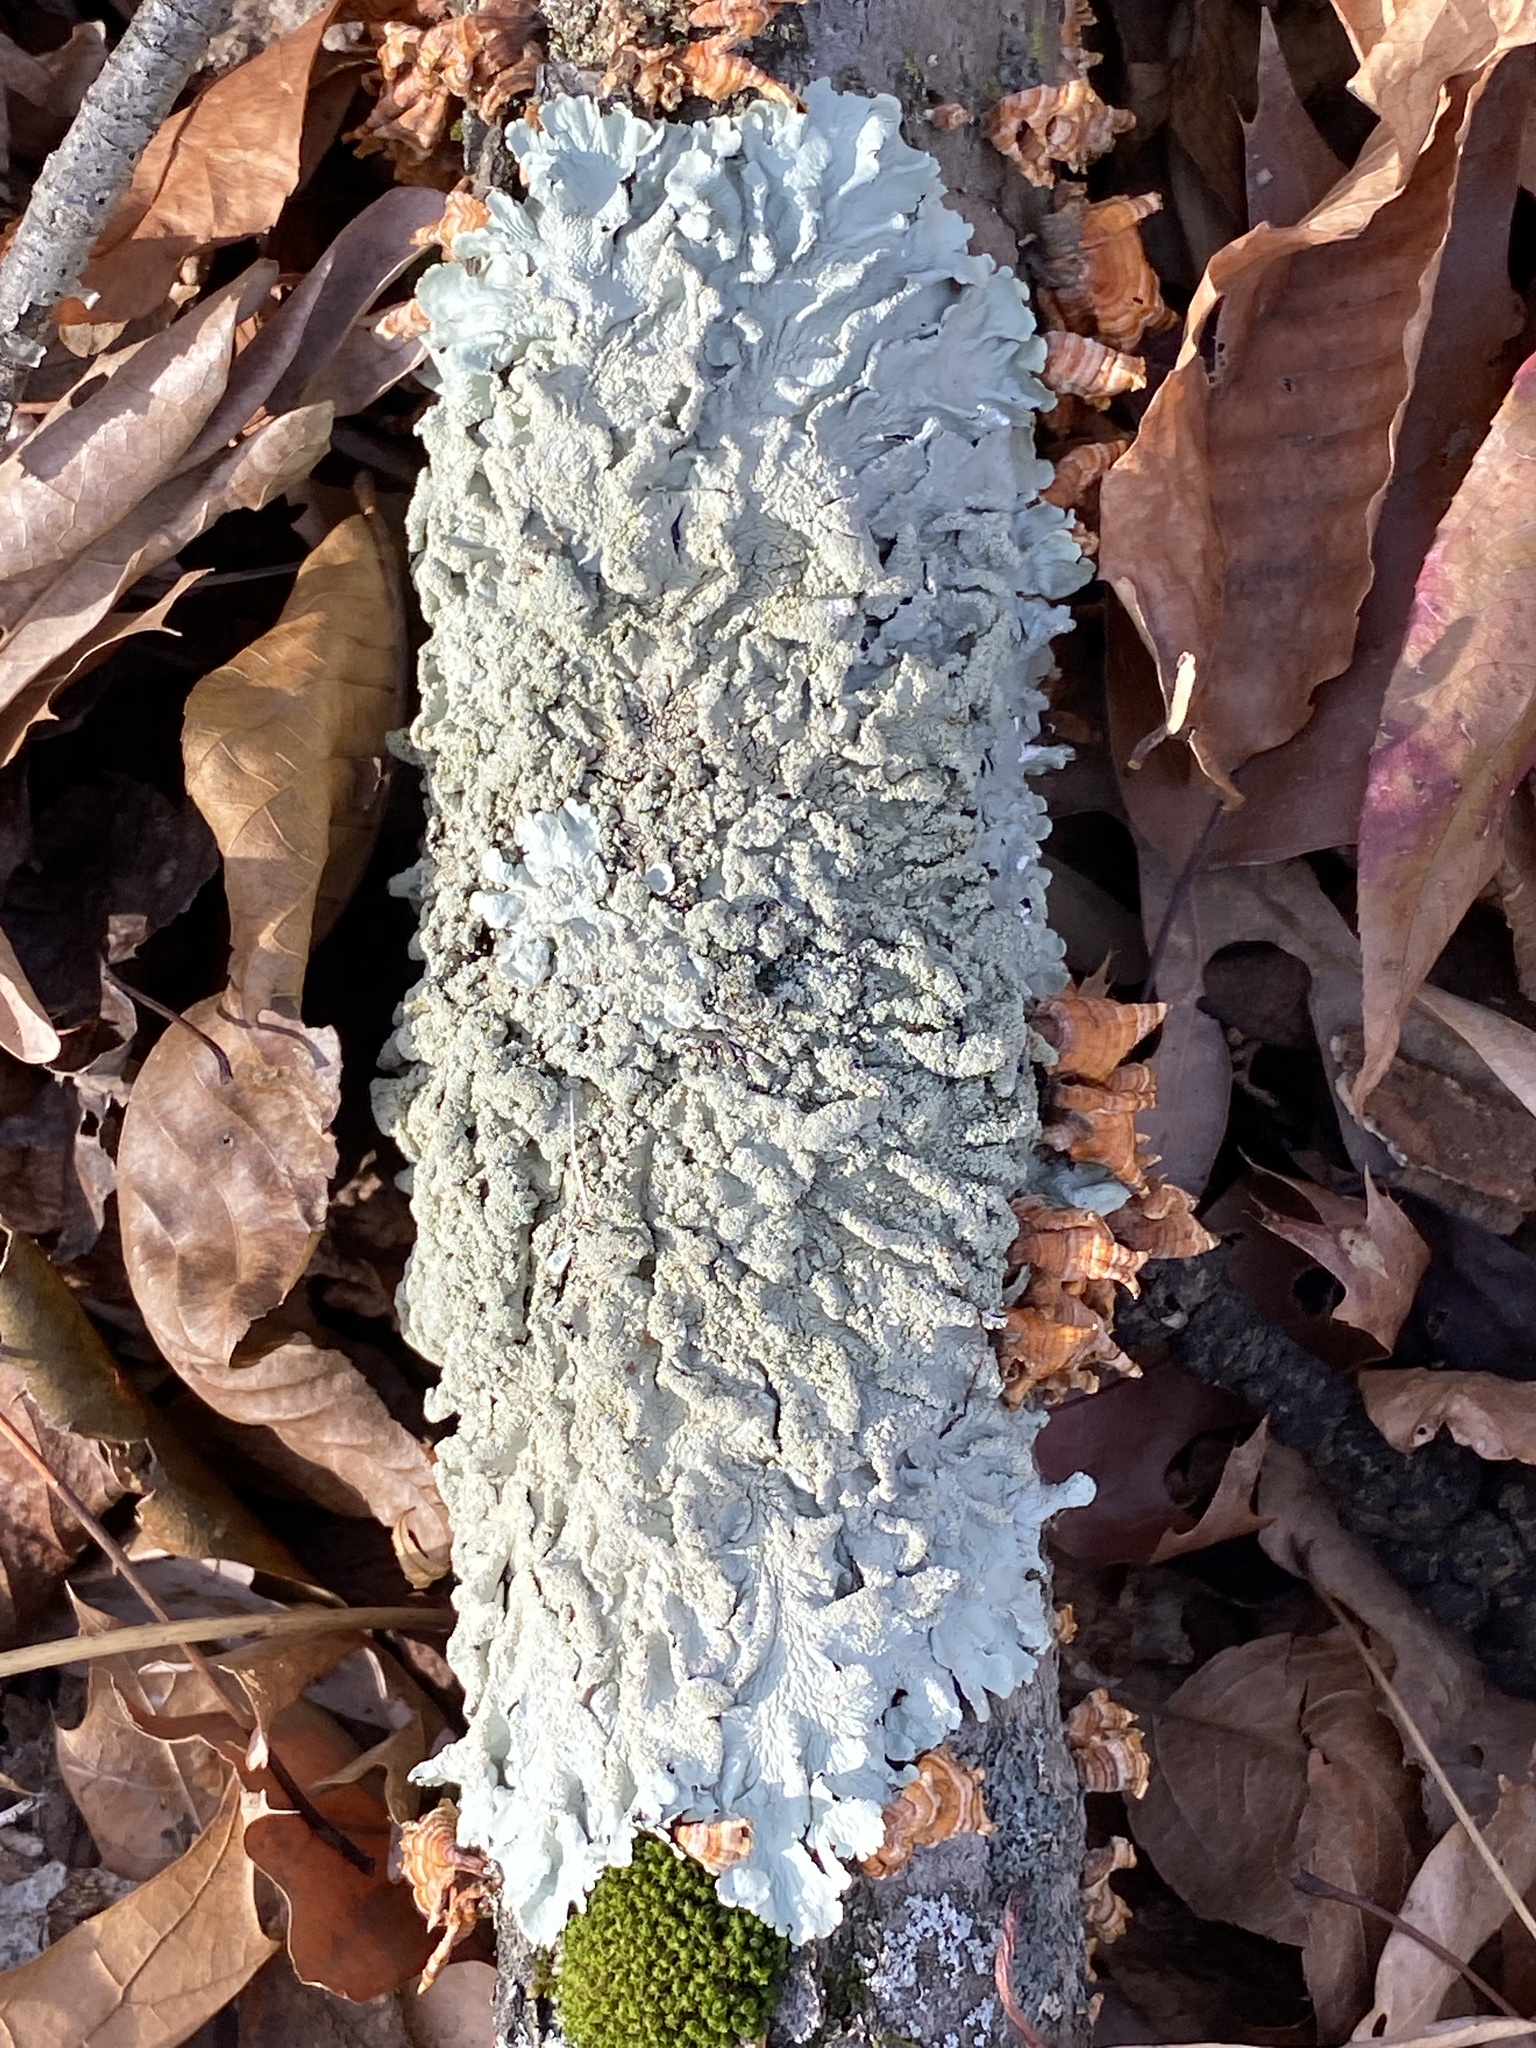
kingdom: Fungi
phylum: Ascomycota
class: Lecanoromycetes
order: Lecanorales
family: Parmeliaceae
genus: Flavoparmelia
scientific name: Flavoparmelia caperata
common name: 40-mile per hour lichen
